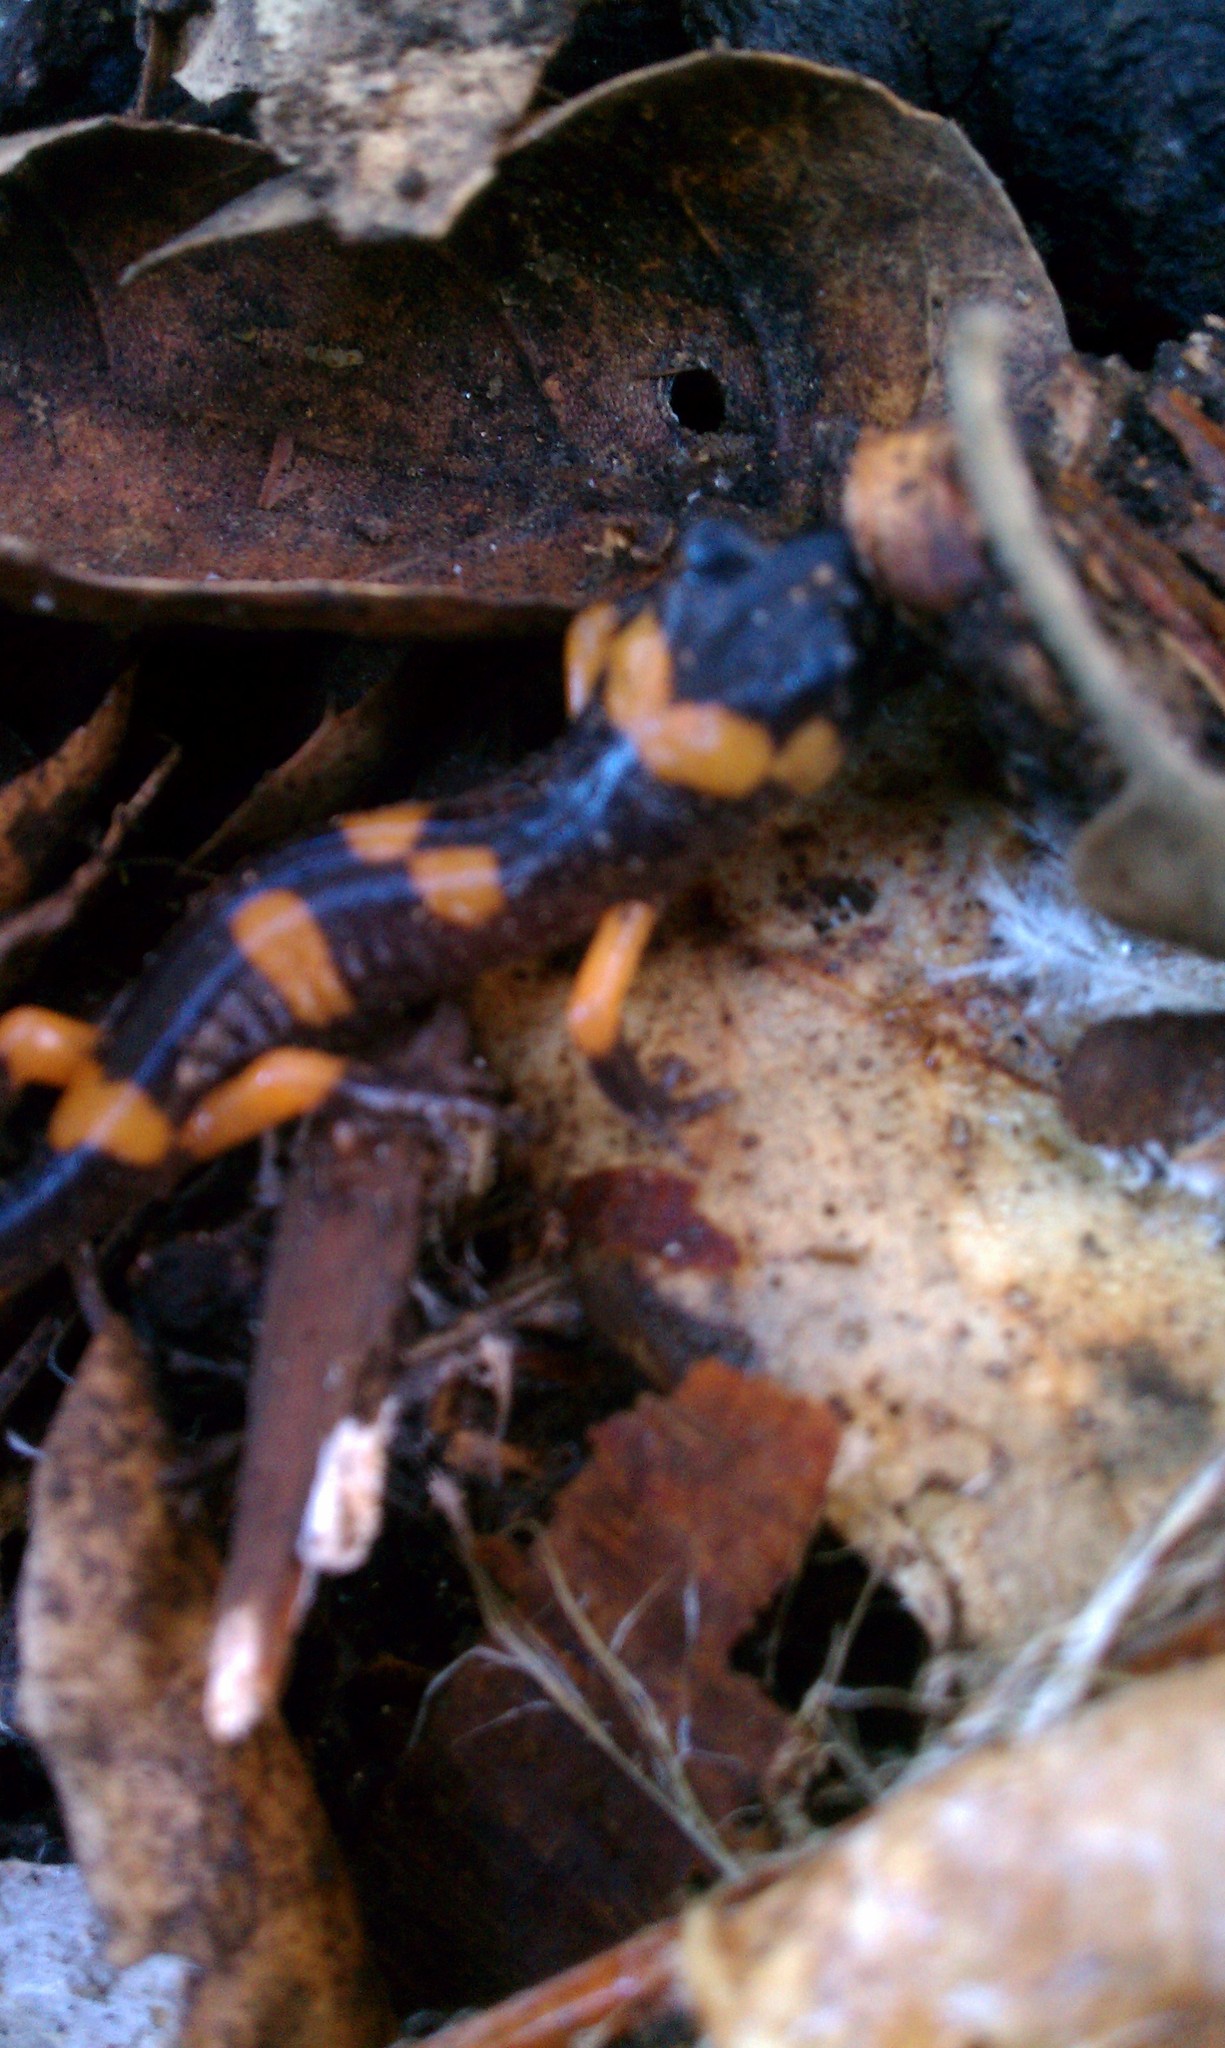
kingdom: Animalia
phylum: Chordata
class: Amphibia
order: Caudata
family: Plethodontidae
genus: Ensatina
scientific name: Ensatina eschscholtzii
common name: Ensatina
